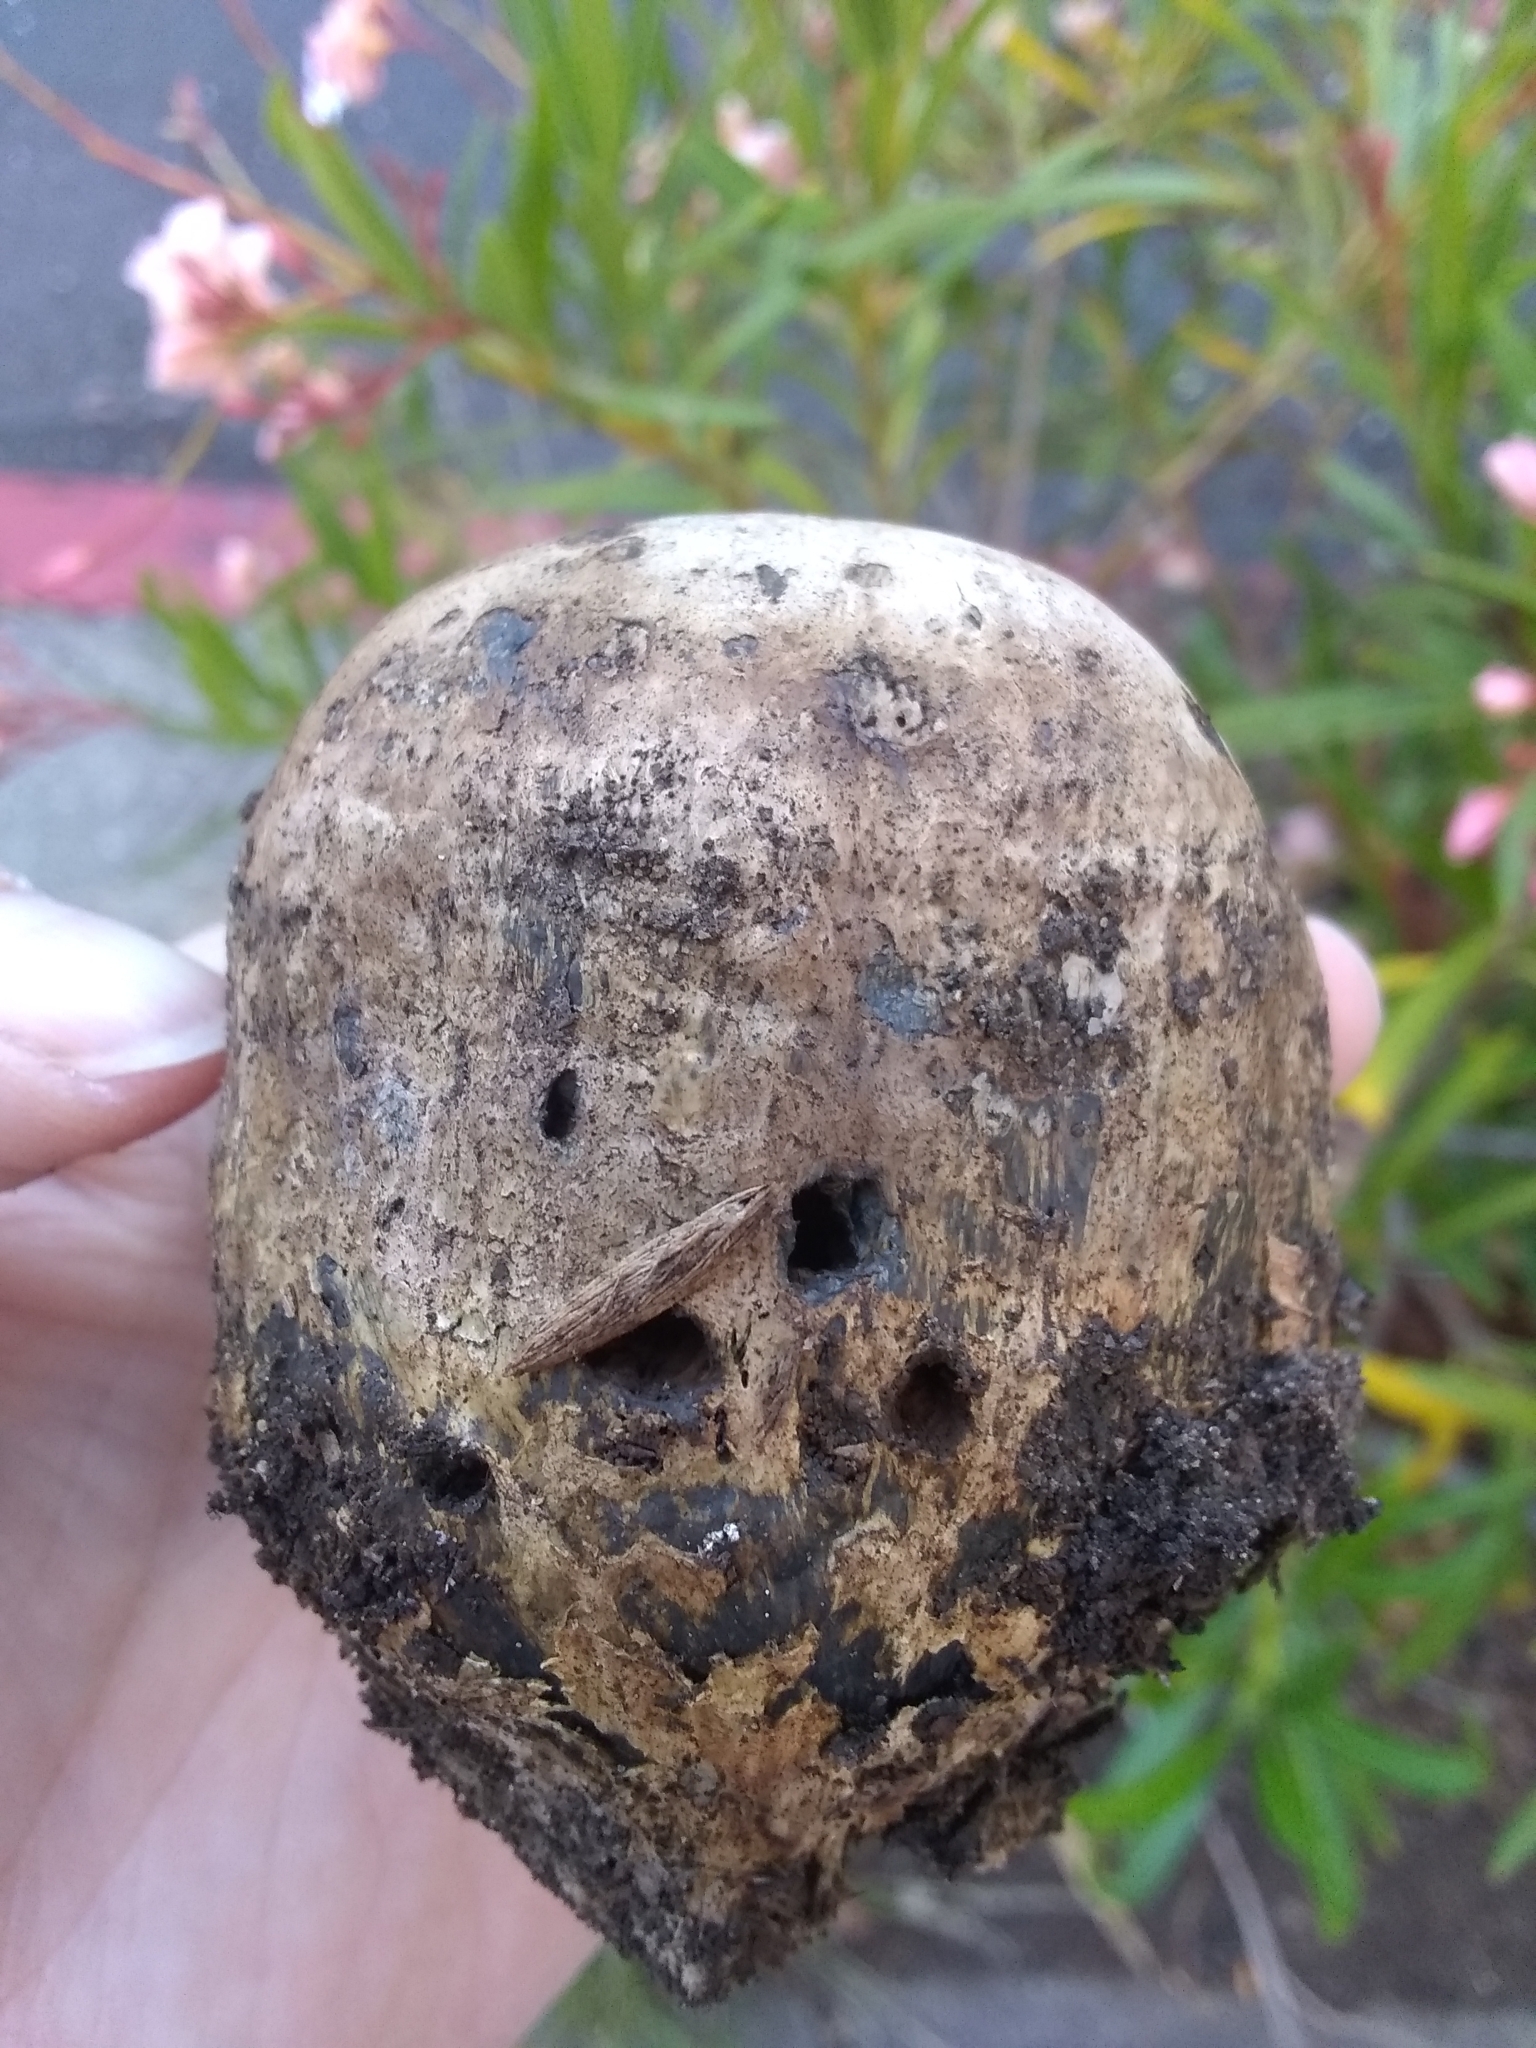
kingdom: Fungi
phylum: Basidiomycota
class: Agaricomycetes
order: Boletales
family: Sclerodermataceae
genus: Pisolithus
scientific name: Pisolithus arhizus
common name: Dyeball
